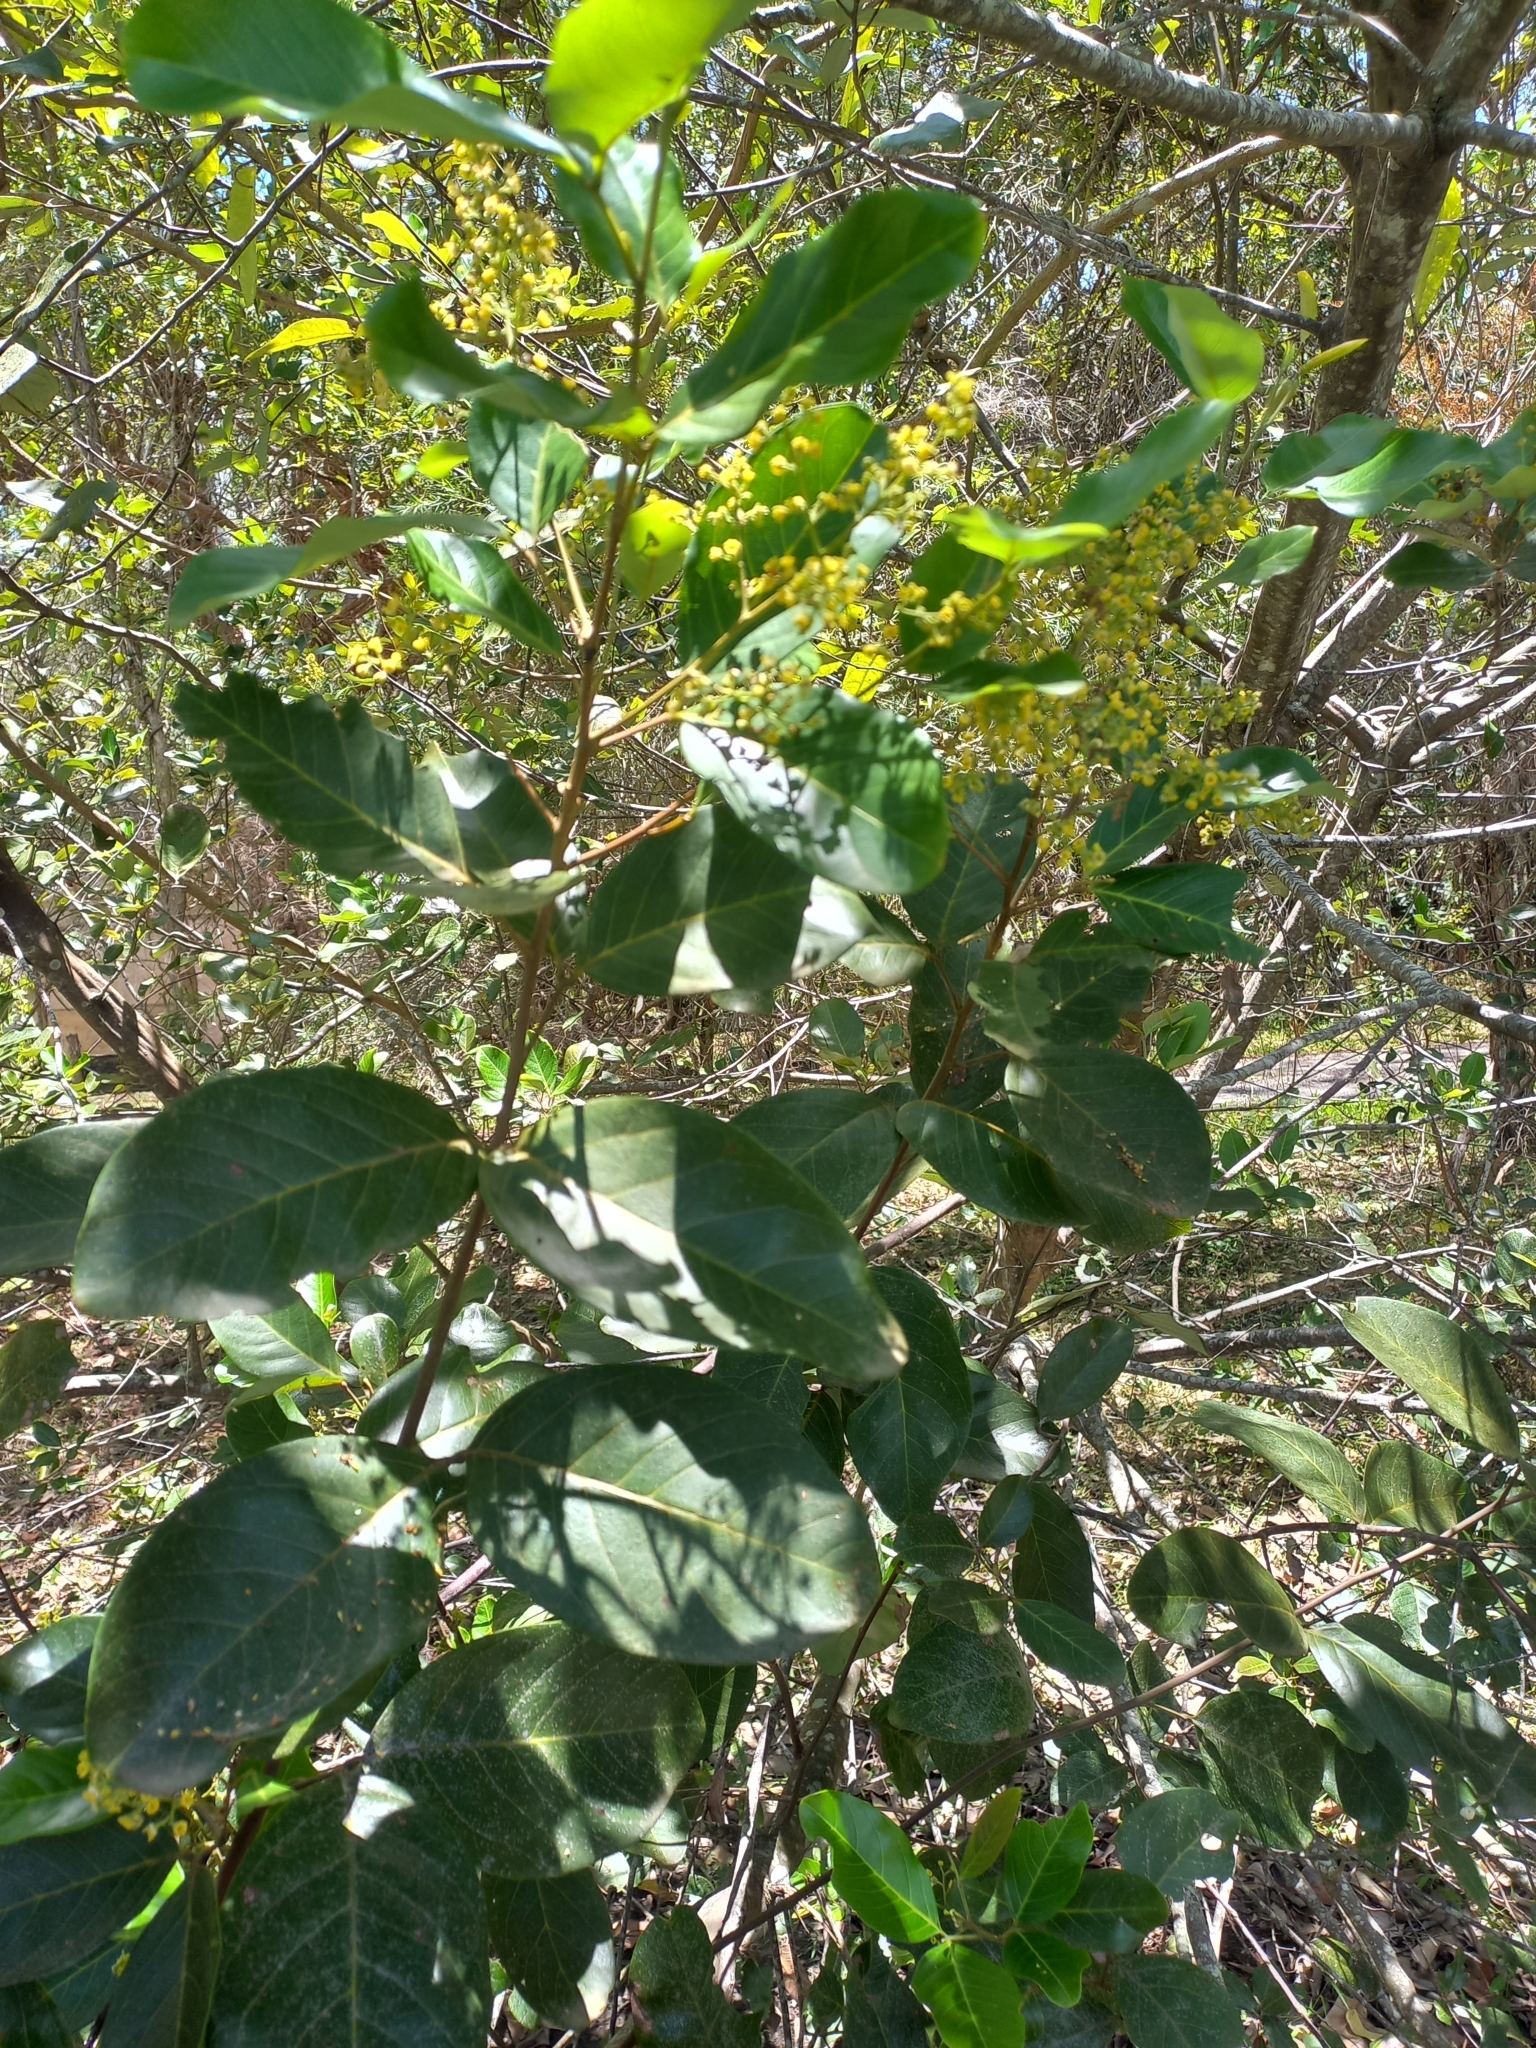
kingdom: Plantae
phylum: Tracheophyta
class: Magnoliopsida
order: Sapindales
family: Sapindaceae
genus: Alectryon
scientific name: Alectryon coriaceus
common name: Beach alectryon
